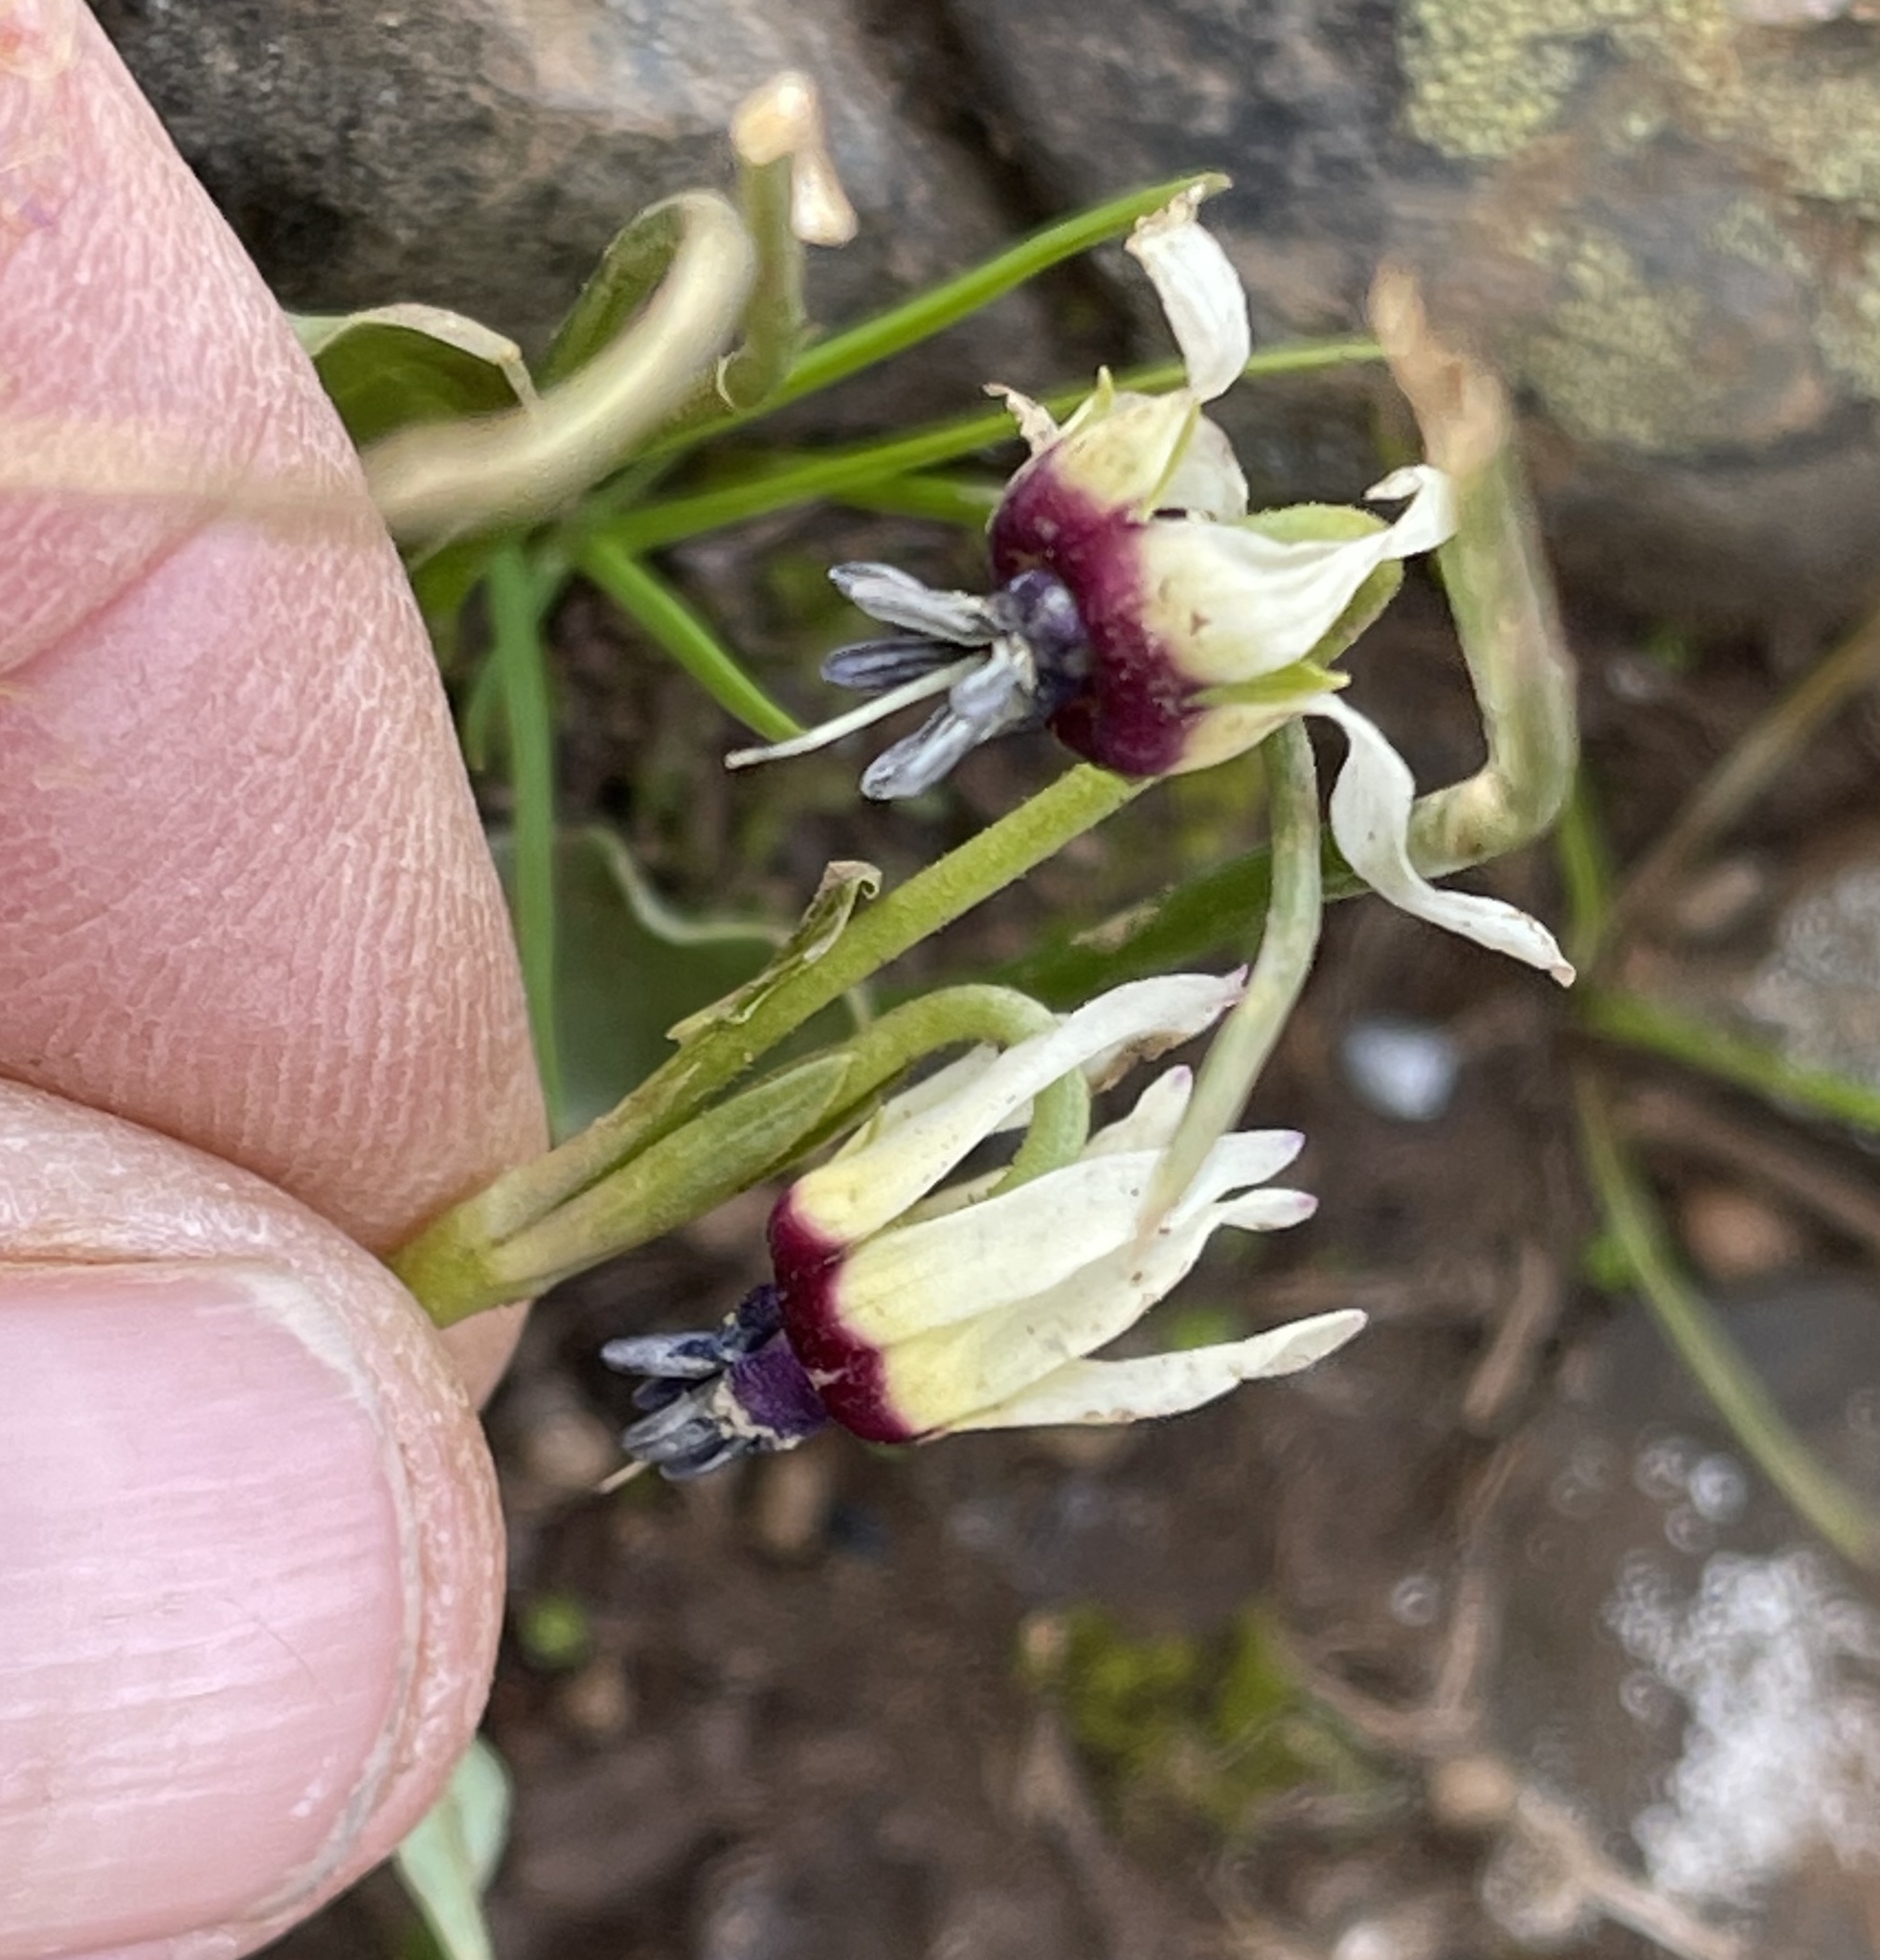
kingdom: Plantae
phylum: Tracheophyta
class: Magnoliopsida
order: Ericales
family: Primulaceae
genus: Dodecatheon
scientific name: Dodecatheon clevelandii
